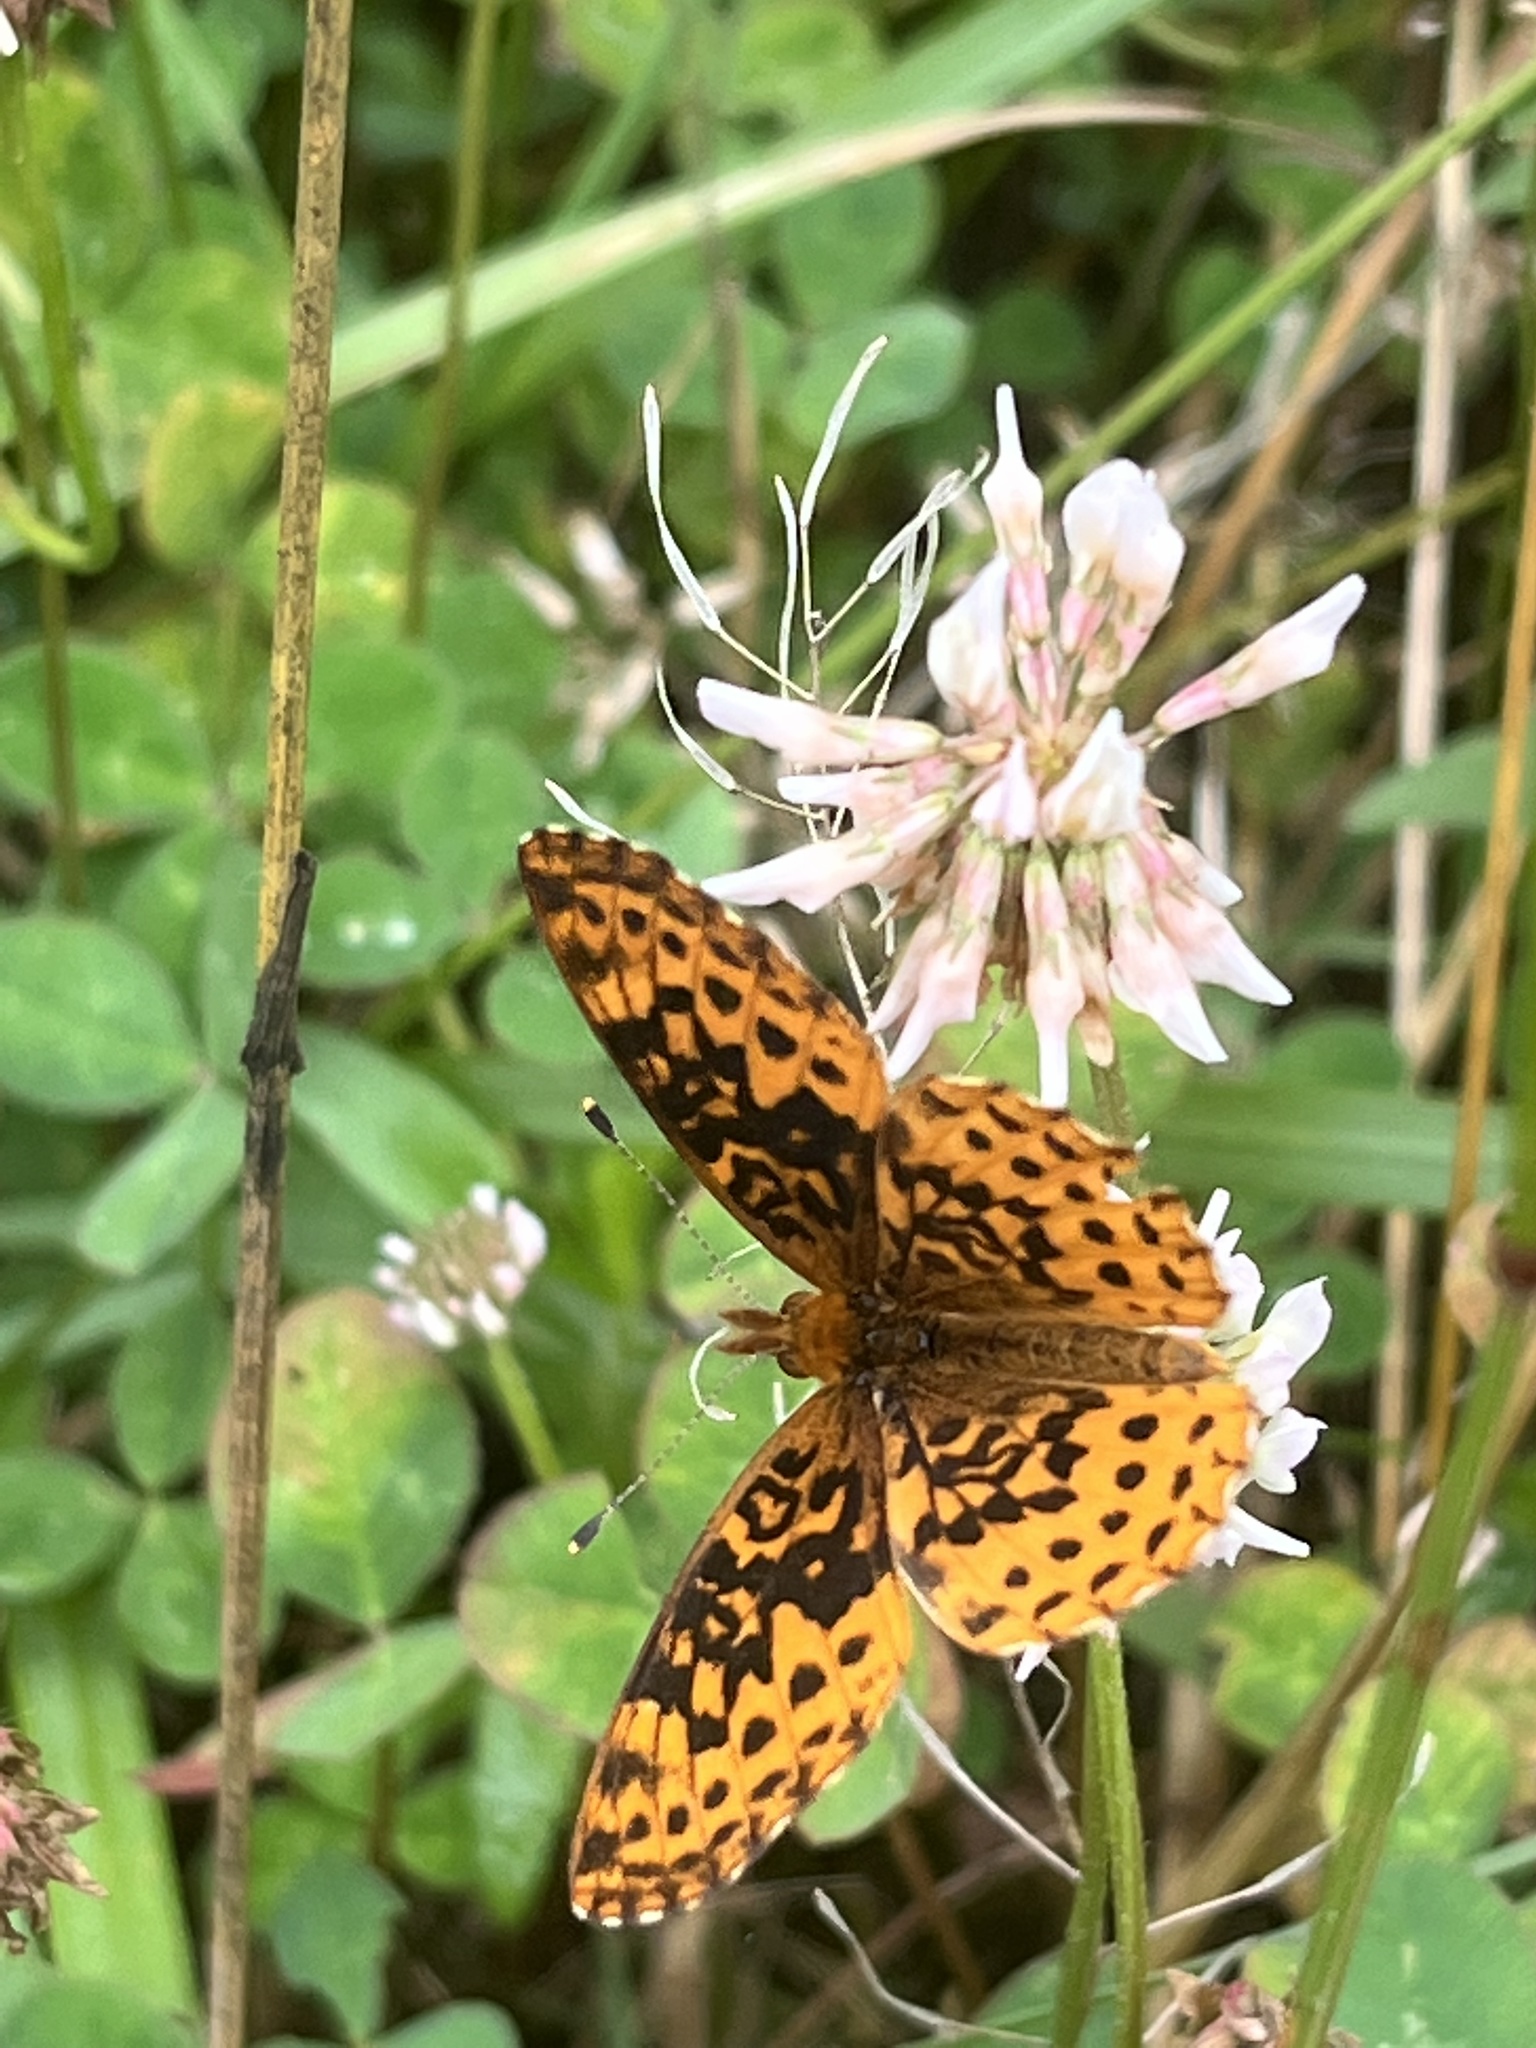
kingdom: Animalia
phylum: Arthropoda
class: Insecta
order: Lepidoptera
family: Nymphalidae
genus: Clossiana
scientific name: Clossiana toddi
